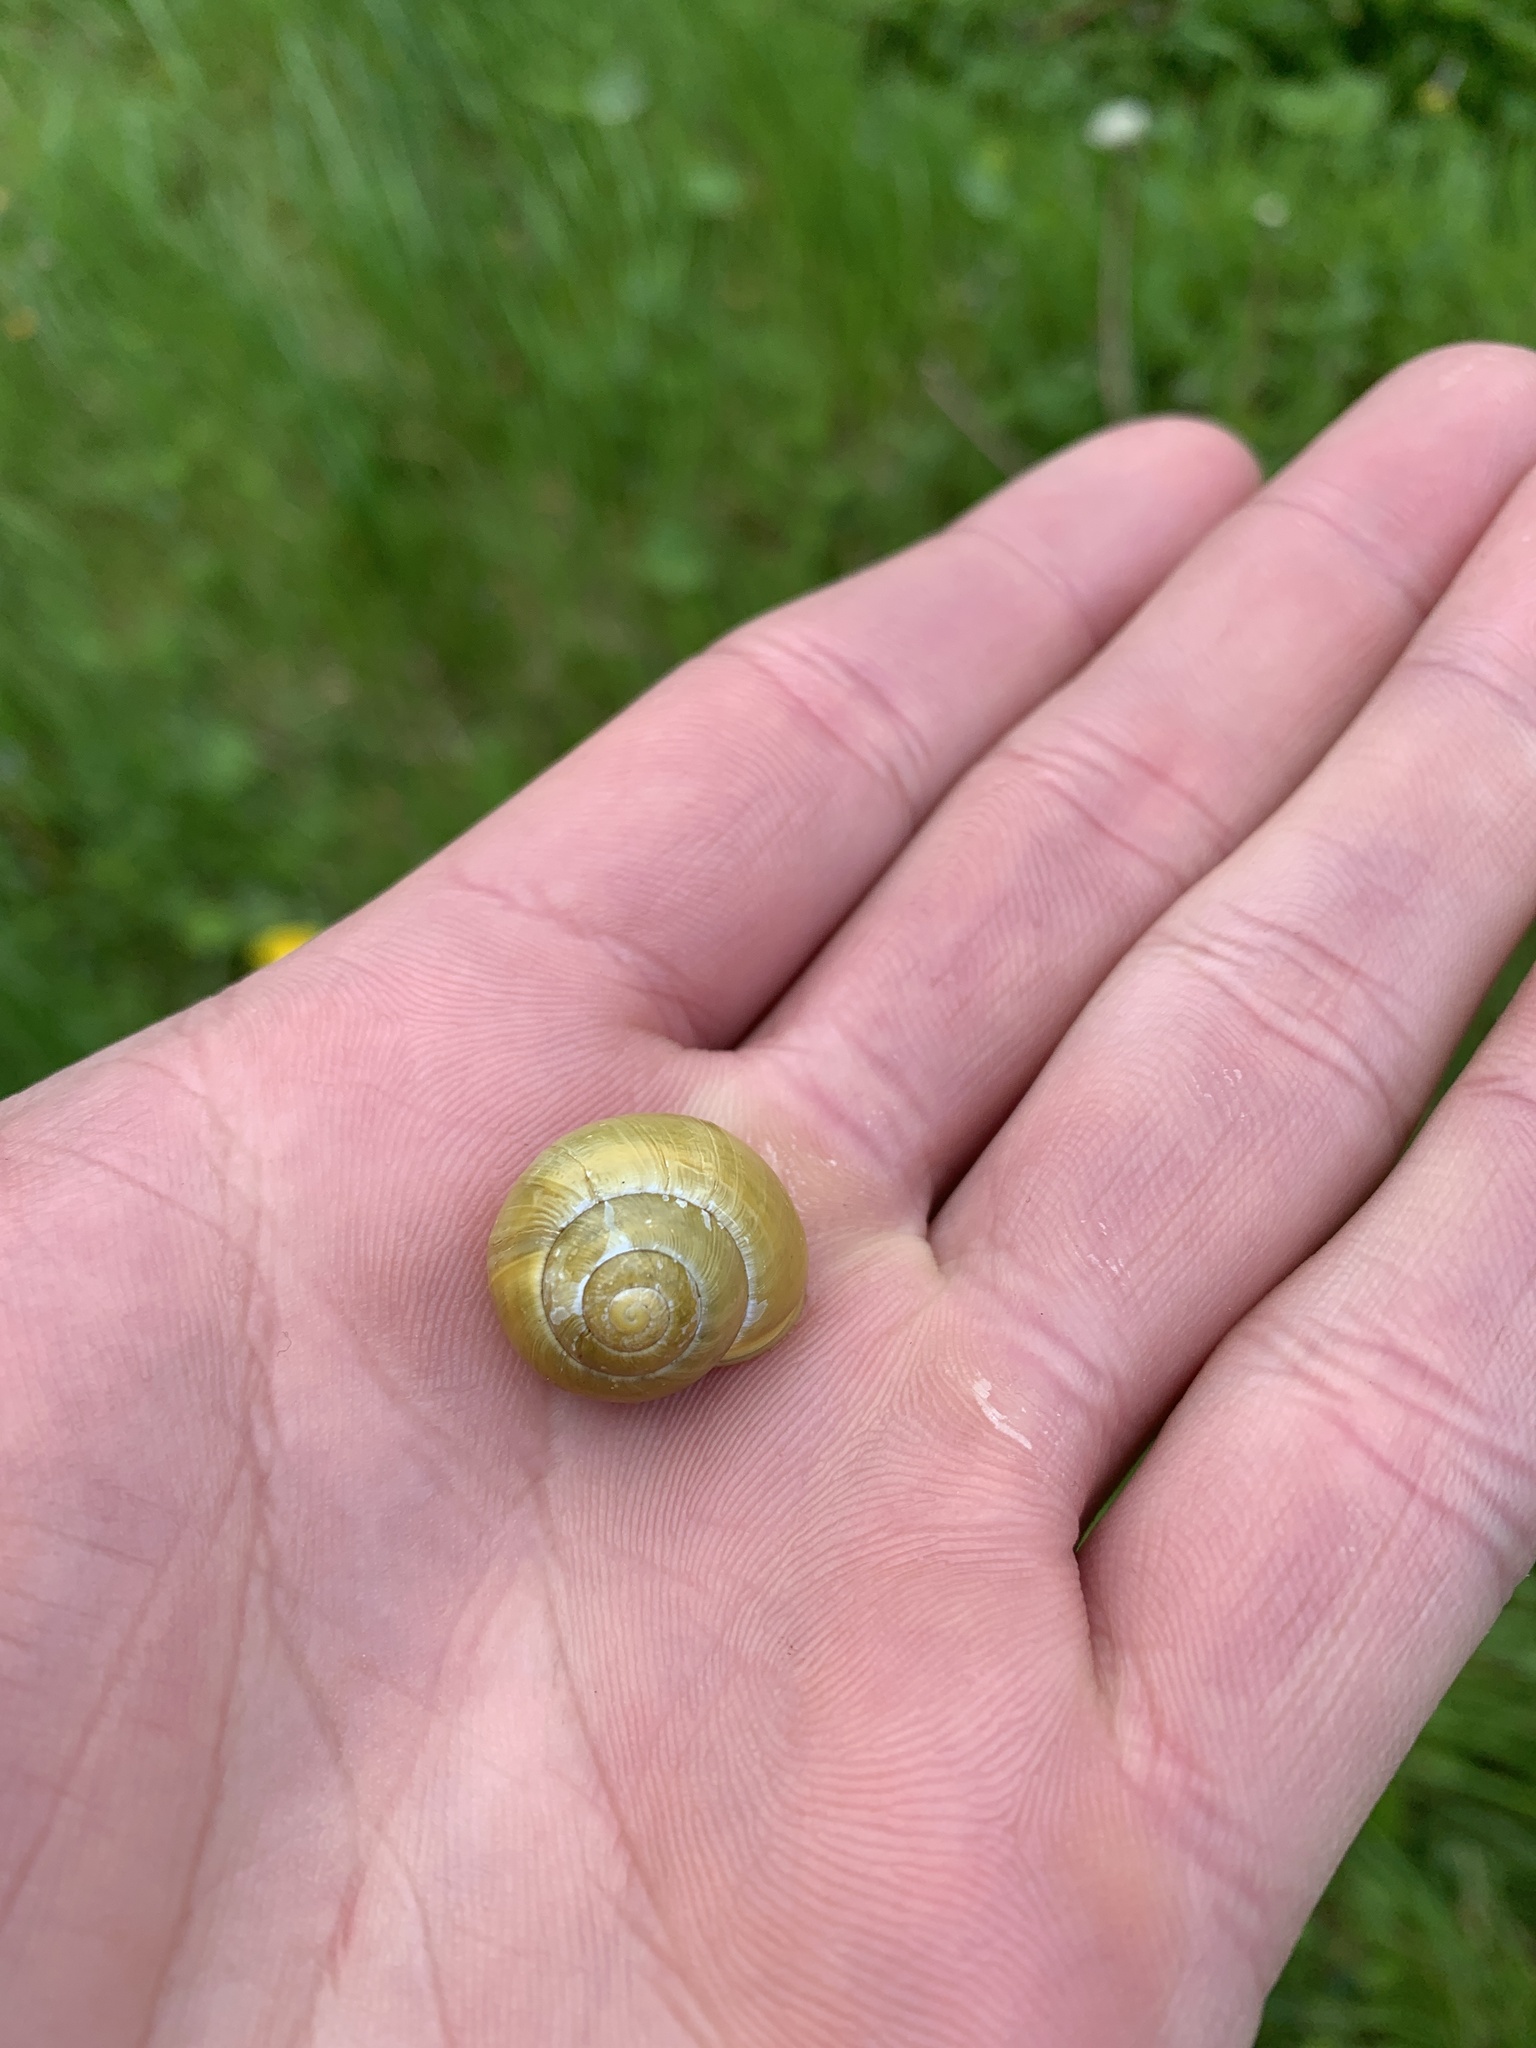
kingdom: Animalia
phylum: Mollusca
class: Gastropoda
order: Stylommatophora
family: Helicidae
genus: Cepaea
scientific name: Cepaea hortensis
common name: White-lip gardensnail
